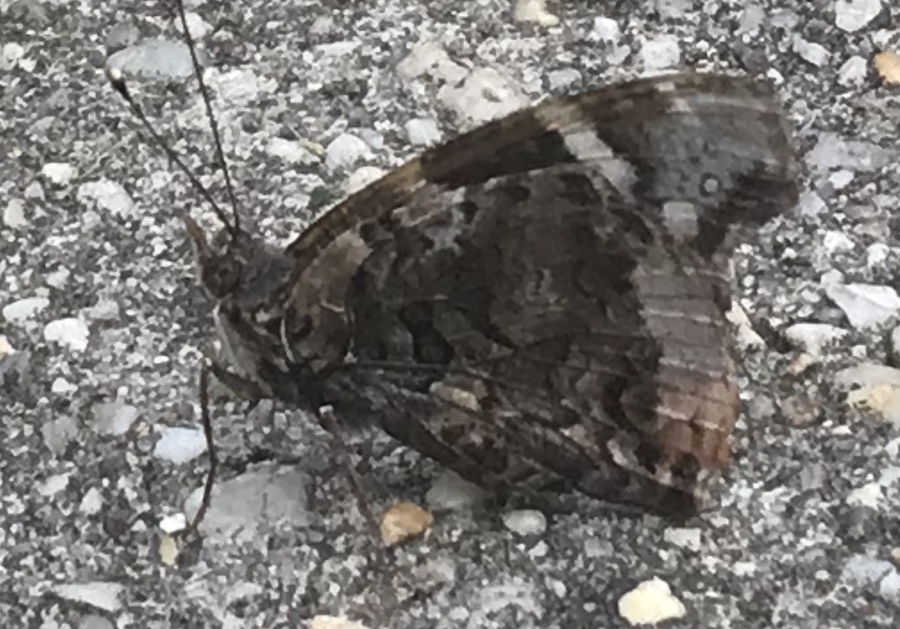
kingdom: Animalia
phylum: Arthropoda
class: Insecta
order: Lepidoptera
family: Nymphalidae
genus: Vanessa
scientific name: Vanessa atalanta
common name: Red admiral
